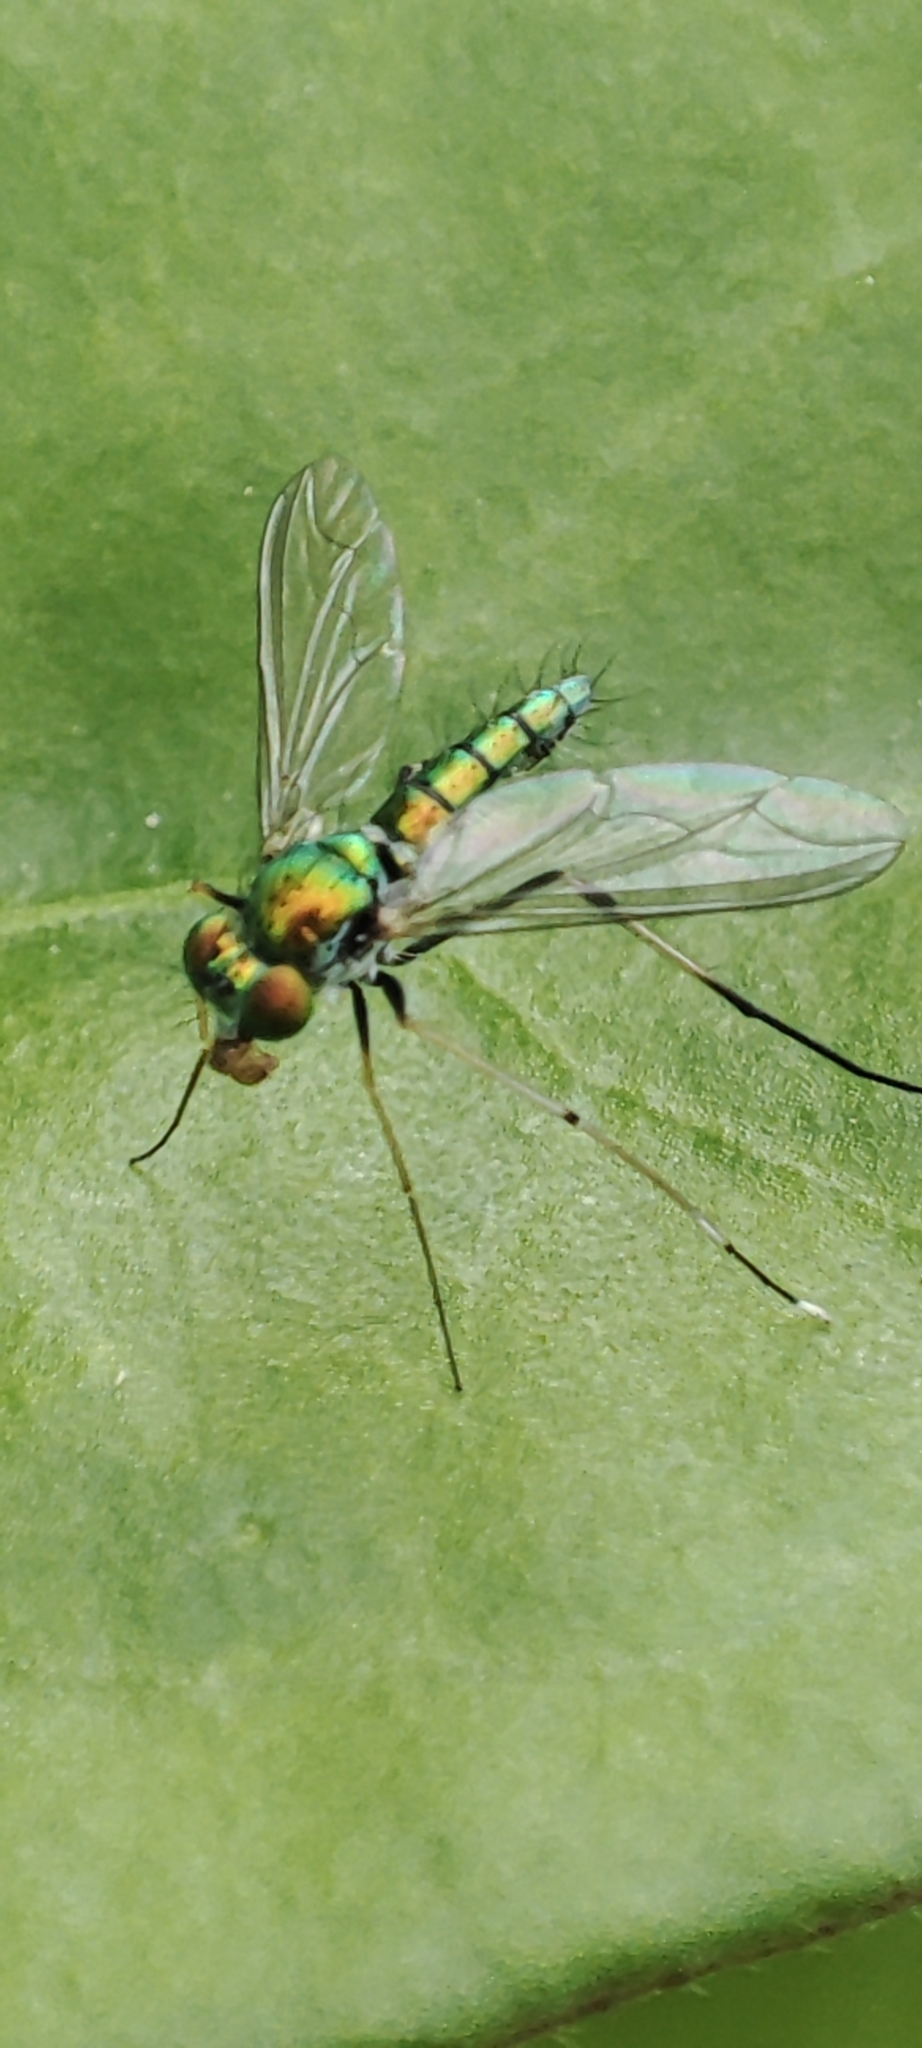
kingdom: Animalia
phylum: Arthropoda
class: Insecta
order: Diptera
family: Dolichopodidae
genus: Chrysosoma
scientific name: Chrysosoma leucopogon
